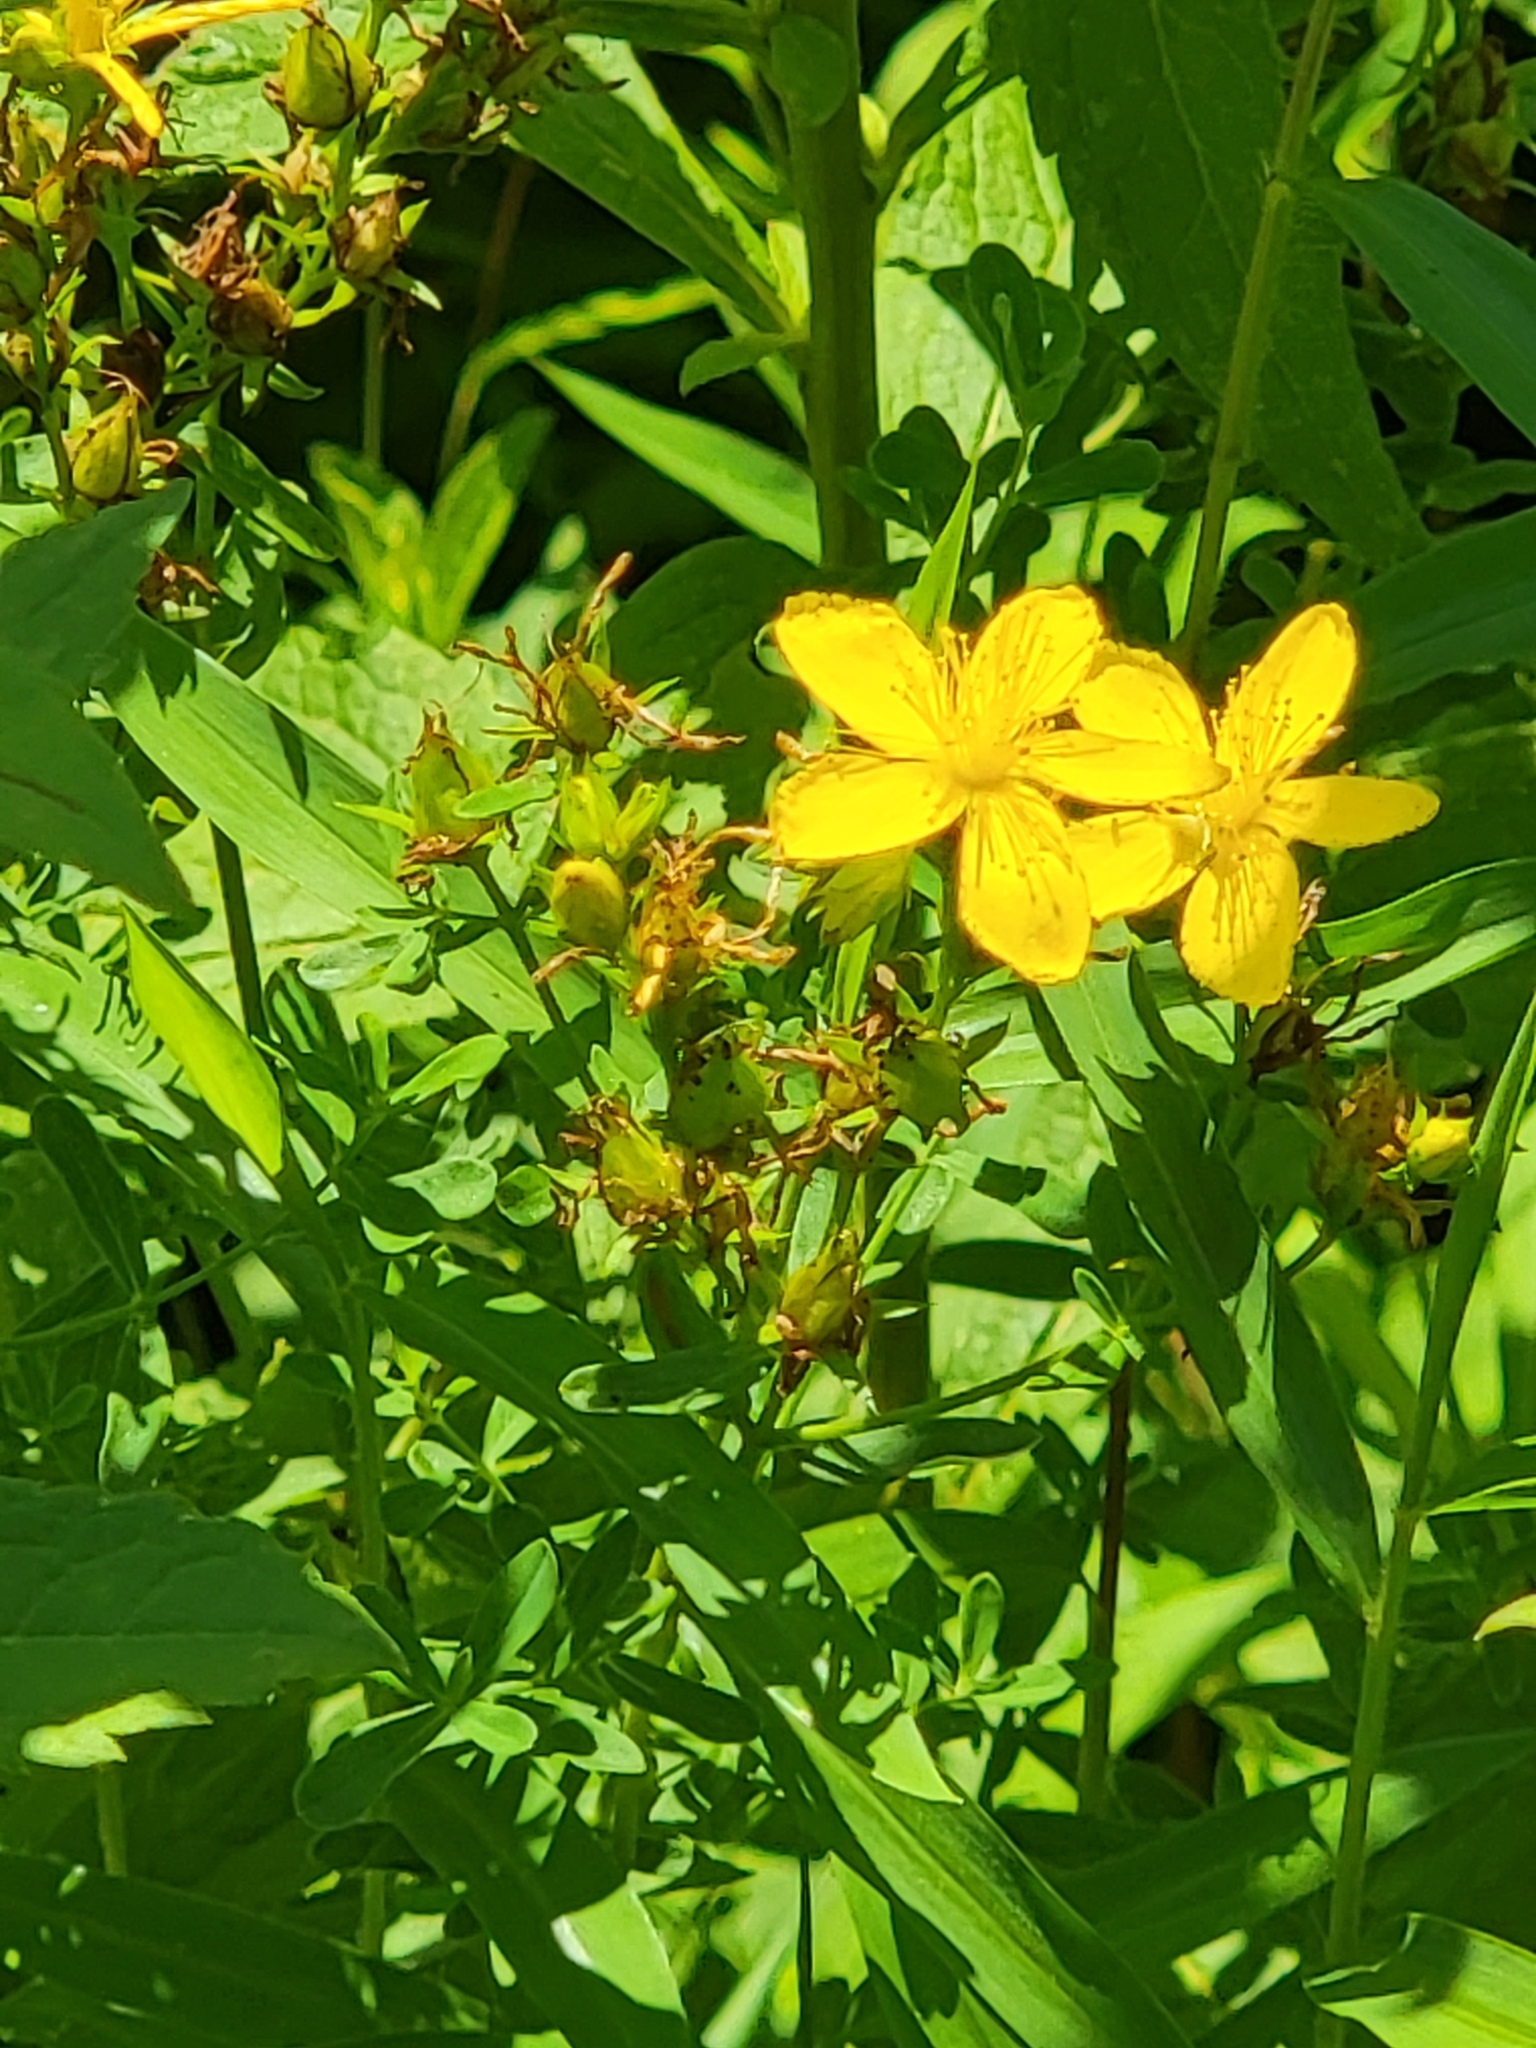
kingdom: Plantae
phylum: Tracheophyta
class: Magnoliopsida
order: Malpighiales
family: Hypericaceae
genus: Hypericum
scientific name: Hypericum perforatum
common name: Common st. johnswort
